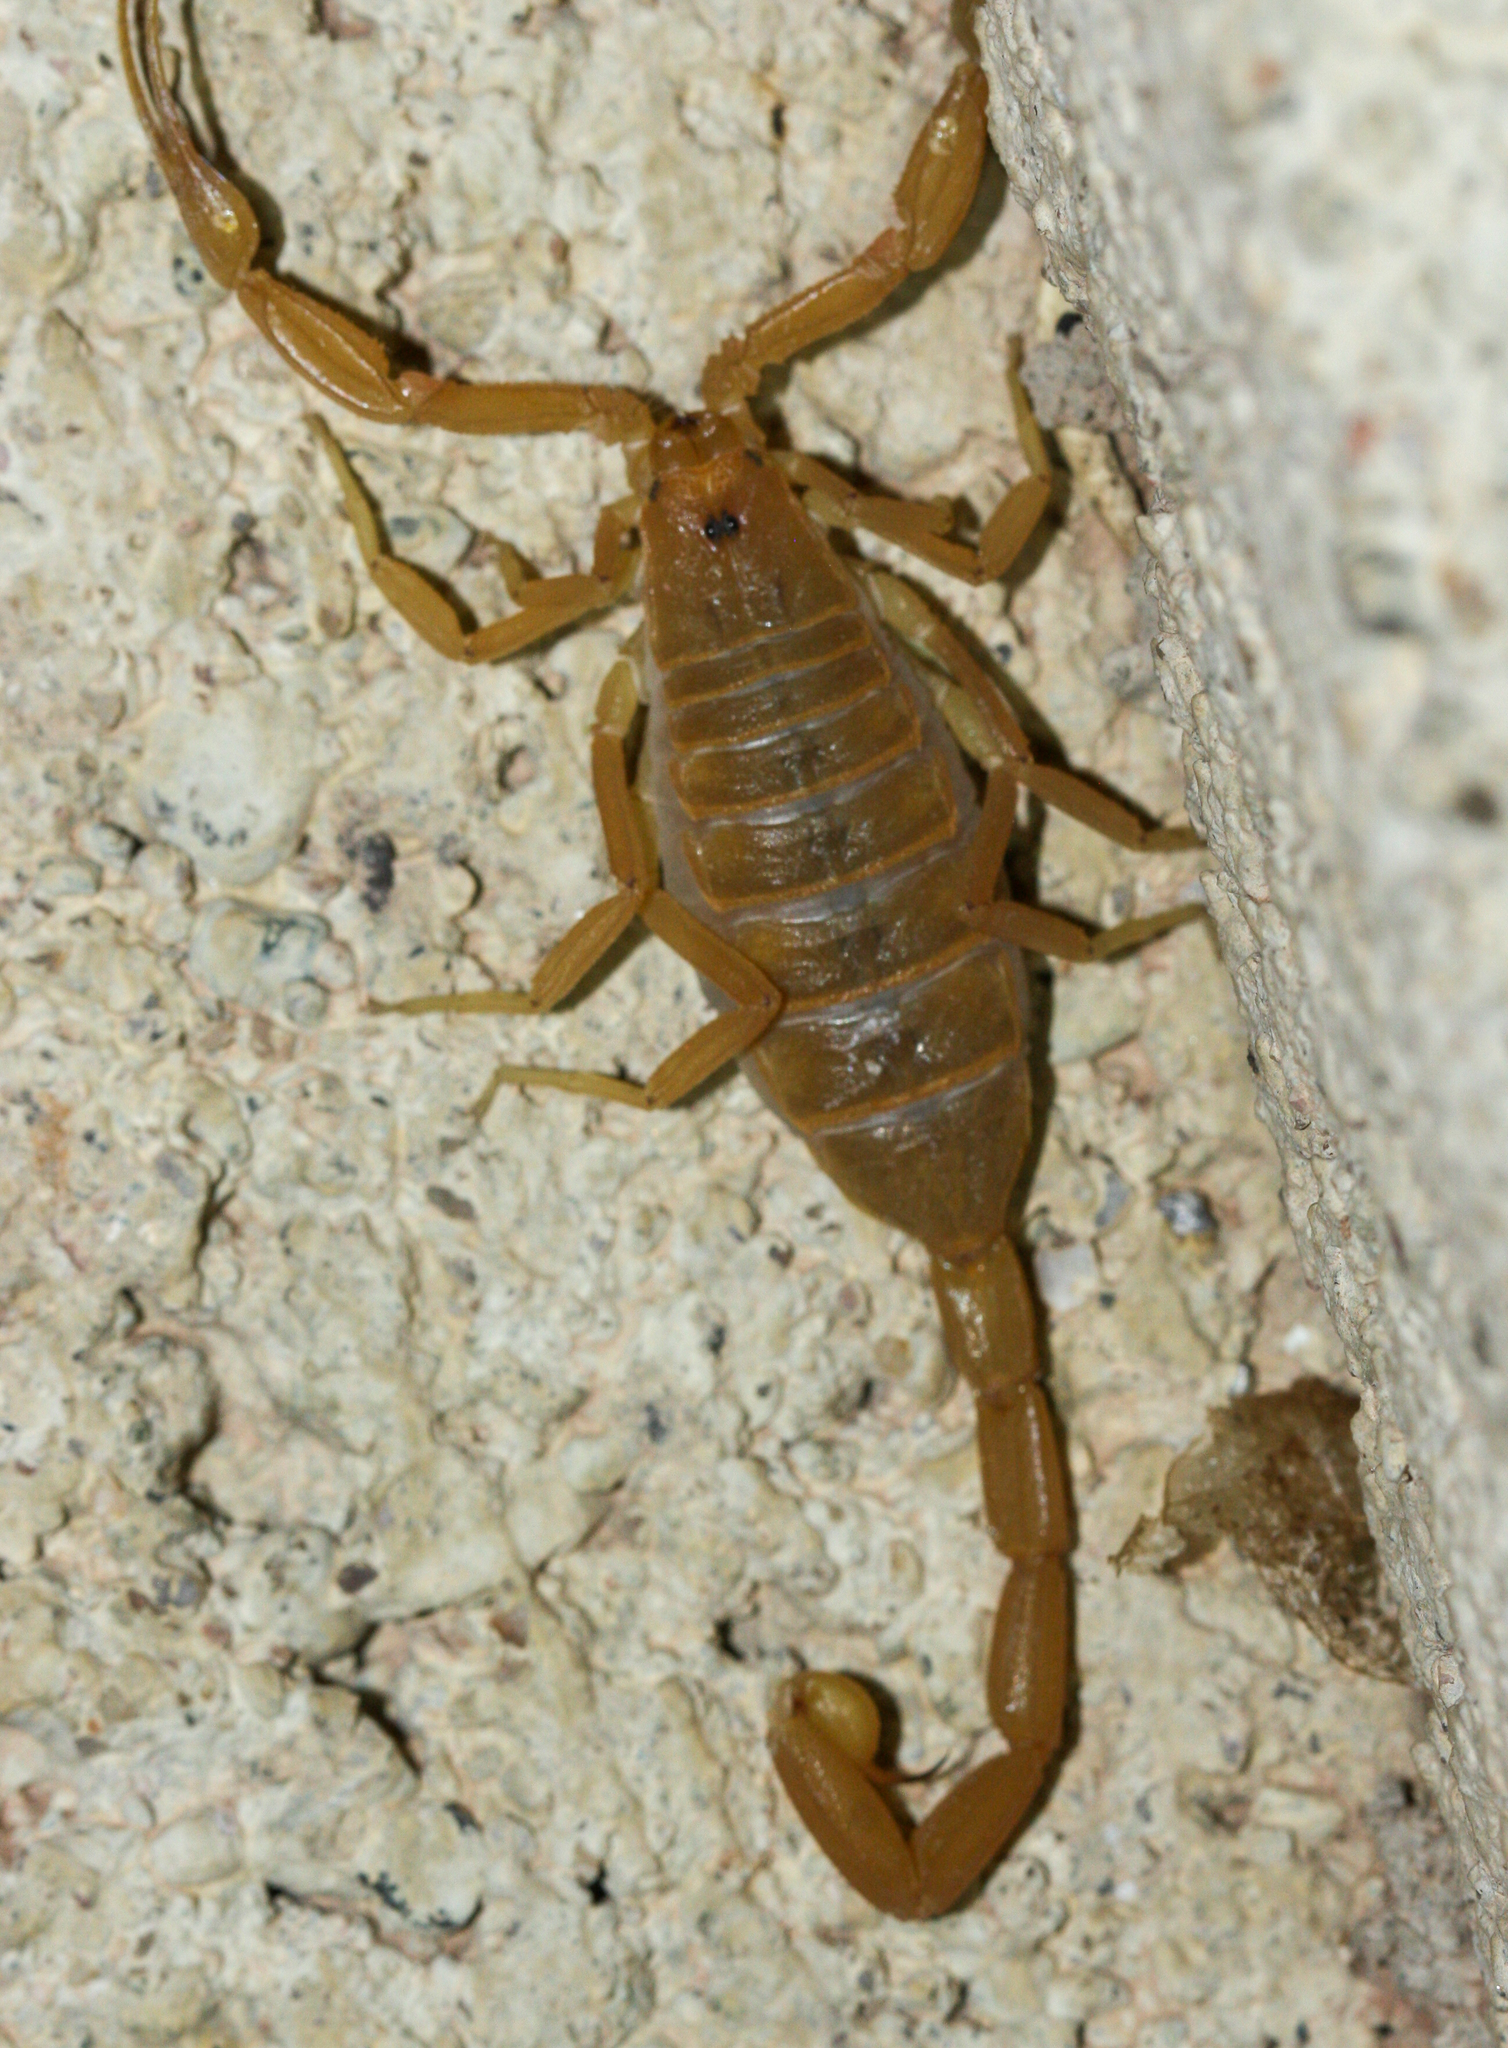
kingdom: Animalia
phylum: Arthropoda
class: Arachnida
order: Scorpiones
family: Buthidae
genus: Centruroides
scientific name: Centruroides sculpturatus
